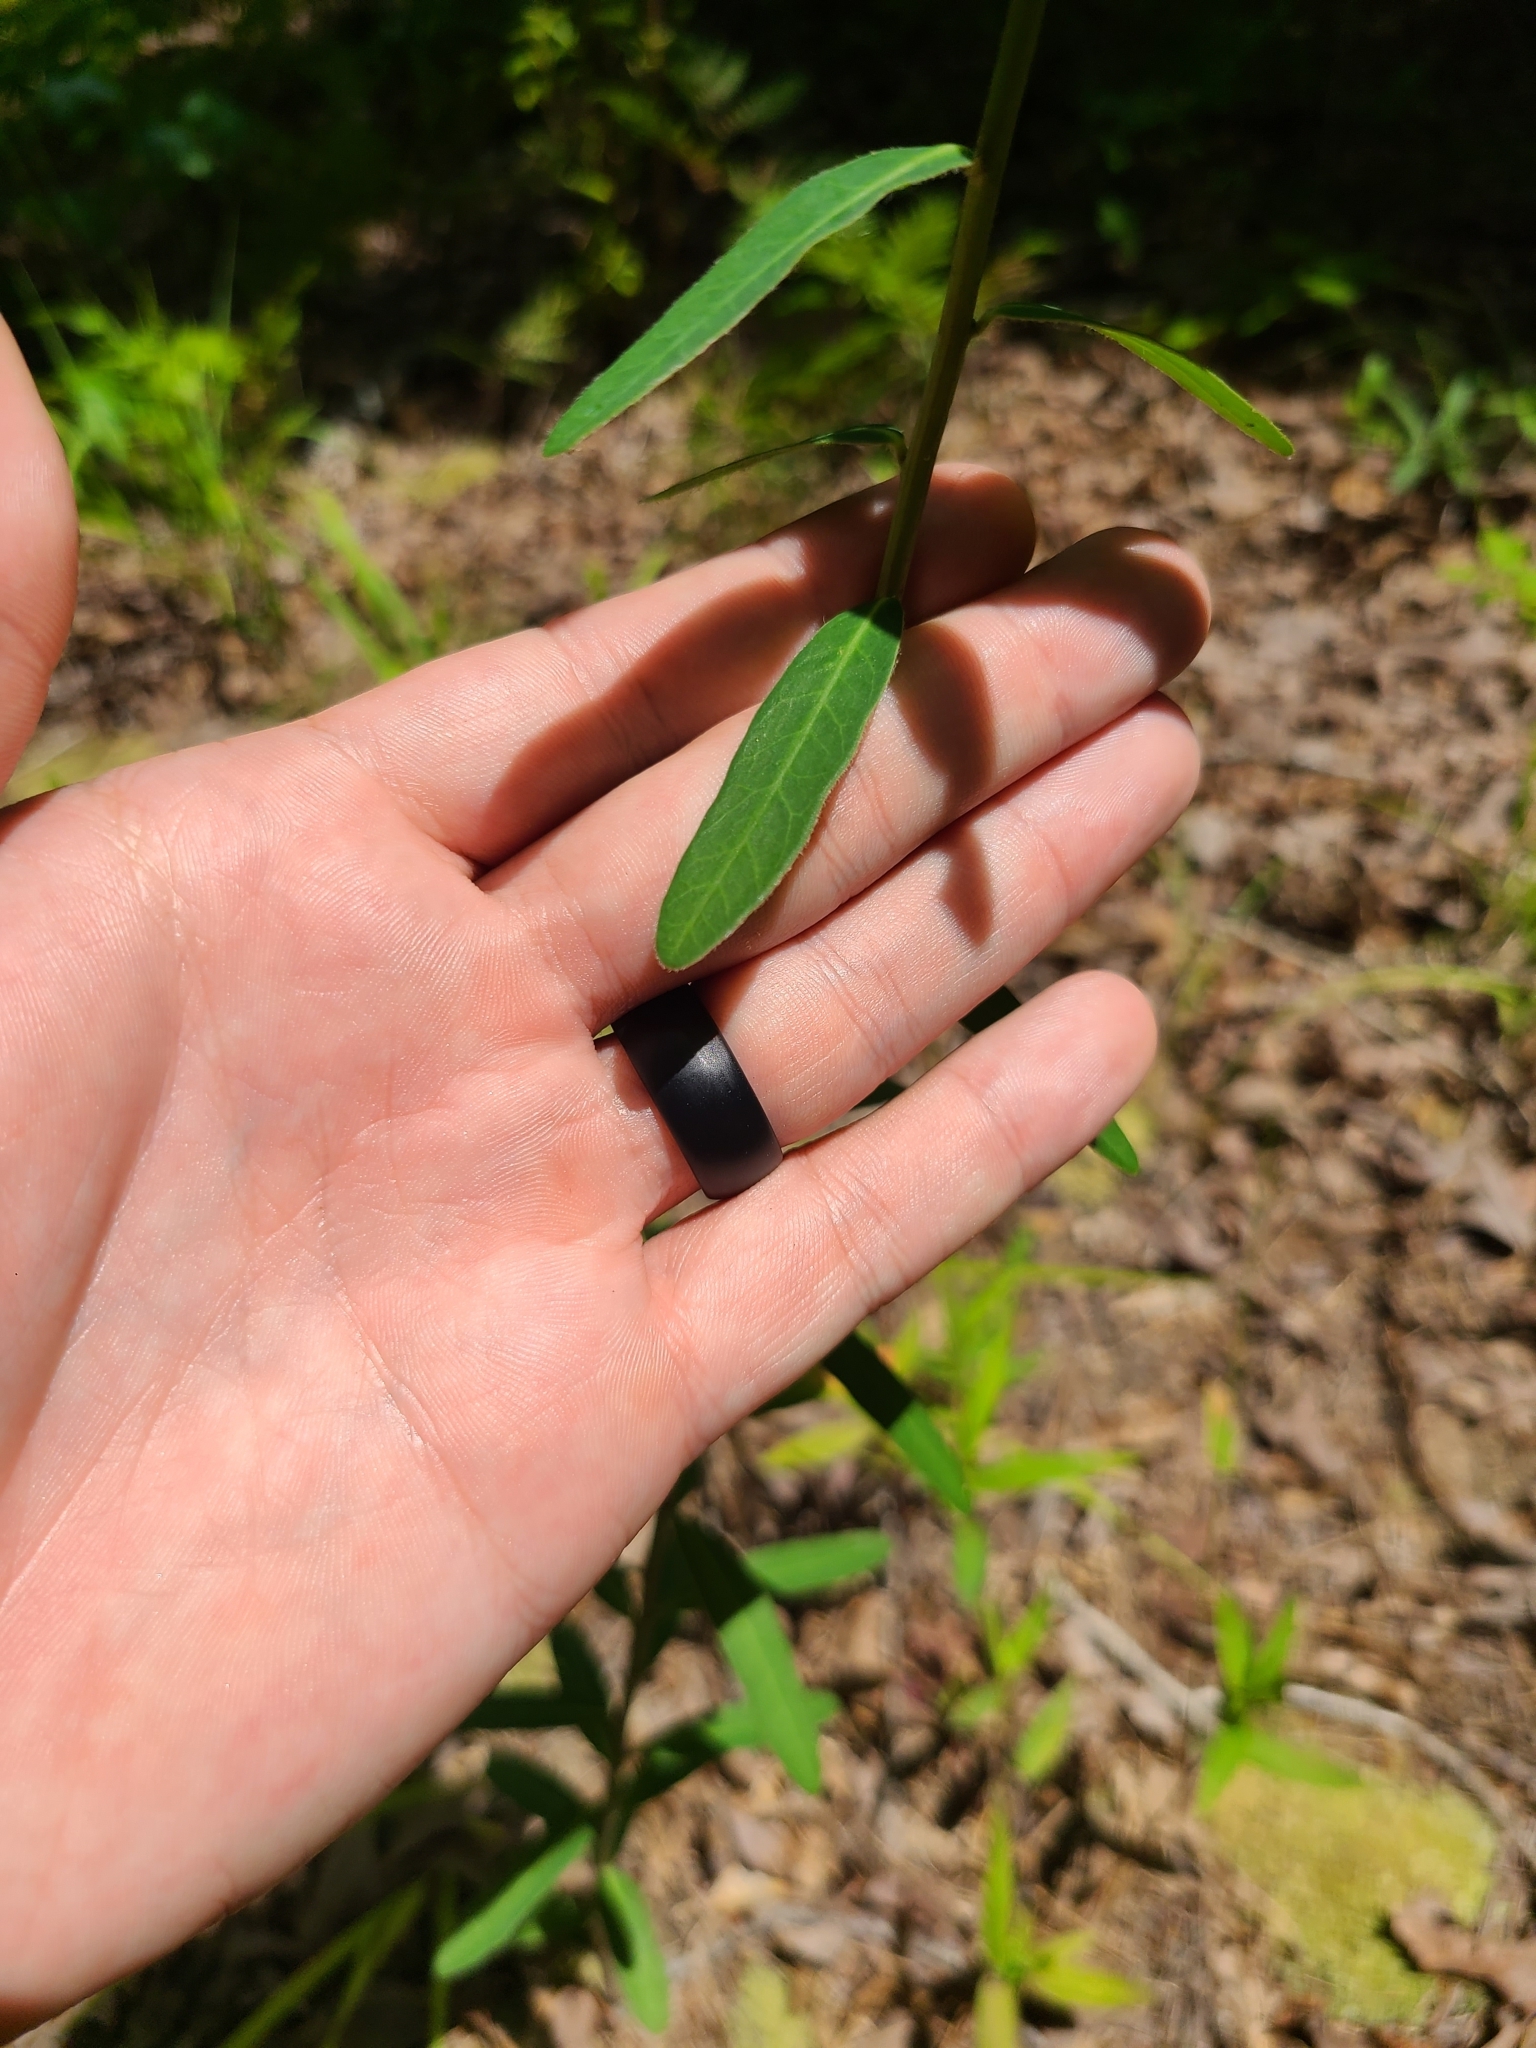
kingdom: Plantae
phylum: Tracheophyta
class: Magnoliopsida
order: Malpighiales
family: Euphorbiaceae
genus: Euphorbia
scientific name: Euphorbia corollata
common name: Flowering spurge
